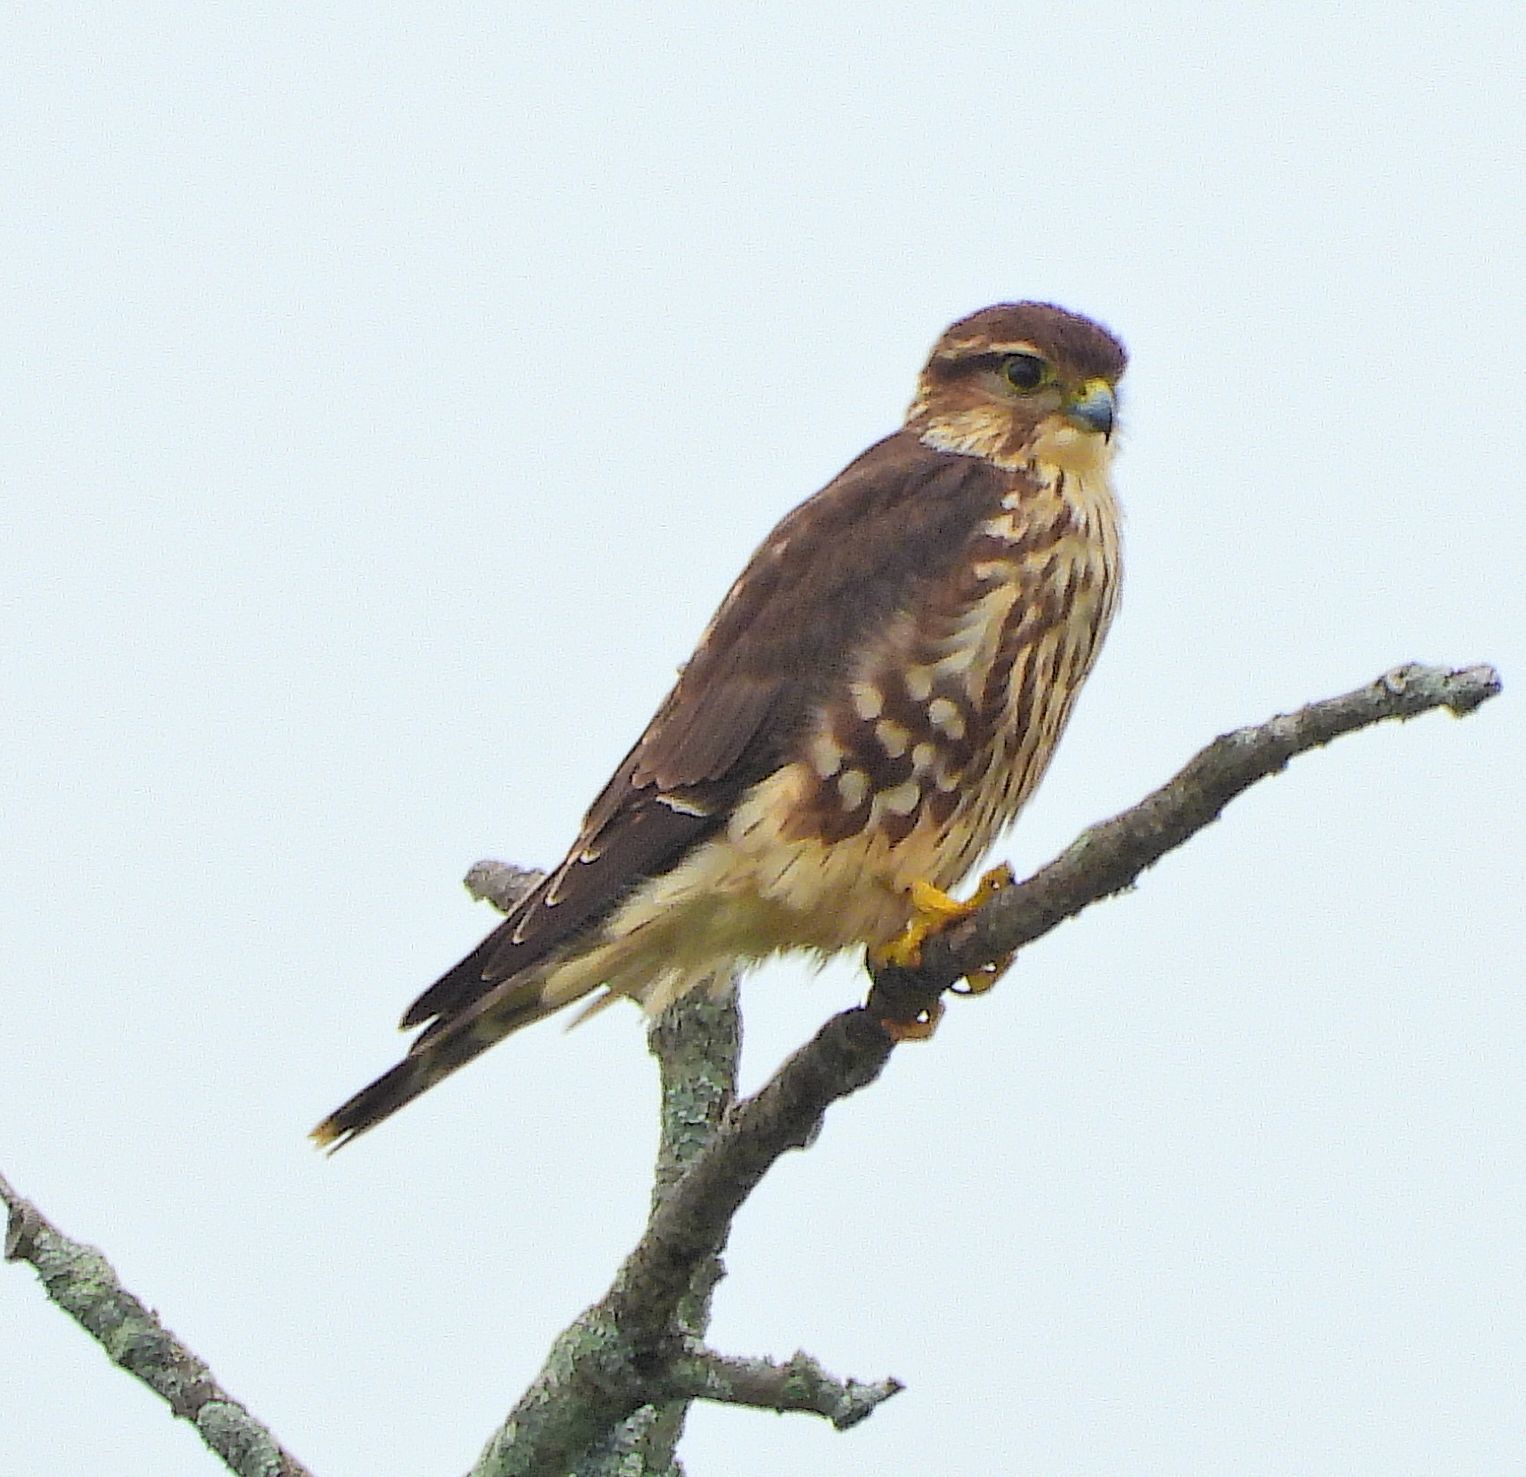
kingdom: Animalia
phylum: Chordata
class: Aves
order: Falconiformes
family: Falconidae
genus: Falco
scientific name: Falco columbarius
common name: Merlin
